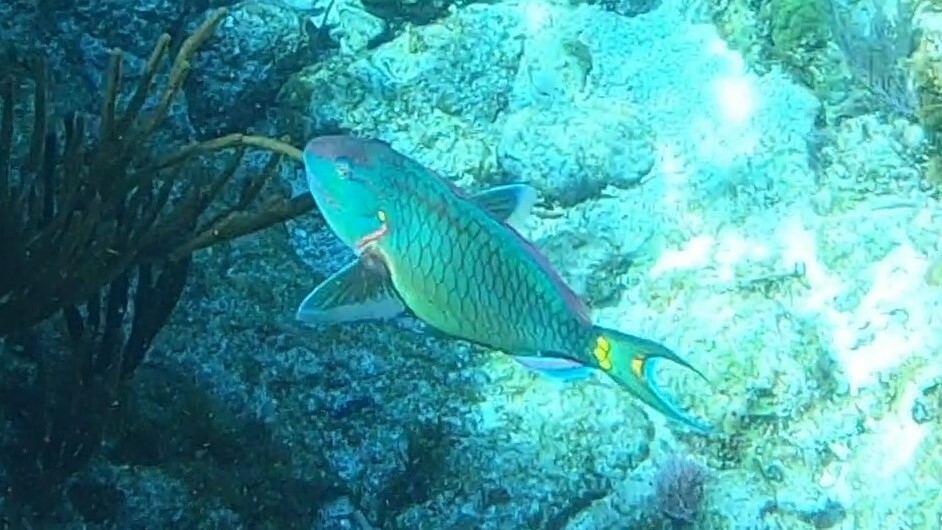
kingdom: Animalia
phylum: Chordata
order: Perciformes
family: Scaridae
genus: Sparisoma
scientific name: Sparisoma viride
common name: Stoplight parrotfish
